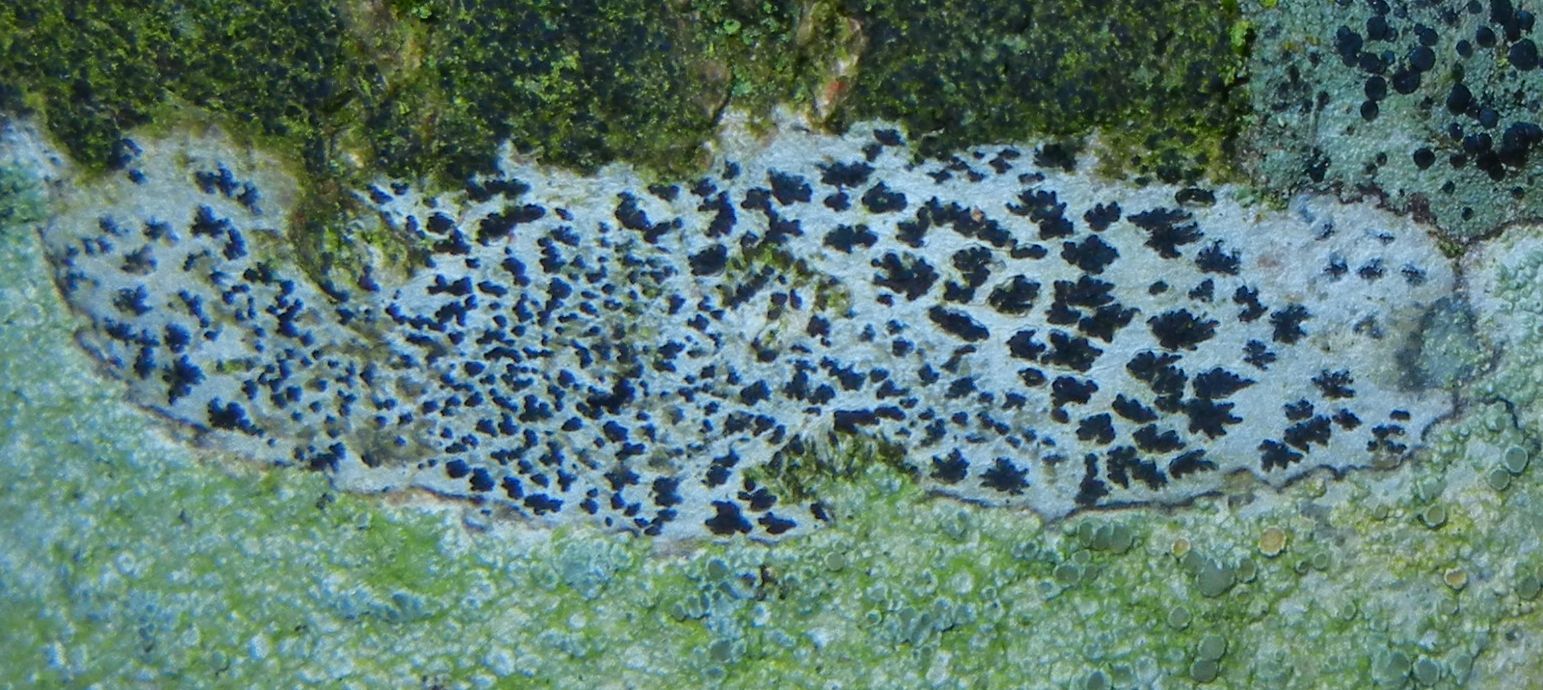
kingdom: Fungi
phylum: Ascomycota
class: Arthoniomycetes
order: Arthoniales
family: Arthoniaceae
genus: Arthonia
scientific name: Arthonia radiata
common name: Asterisk lichen
